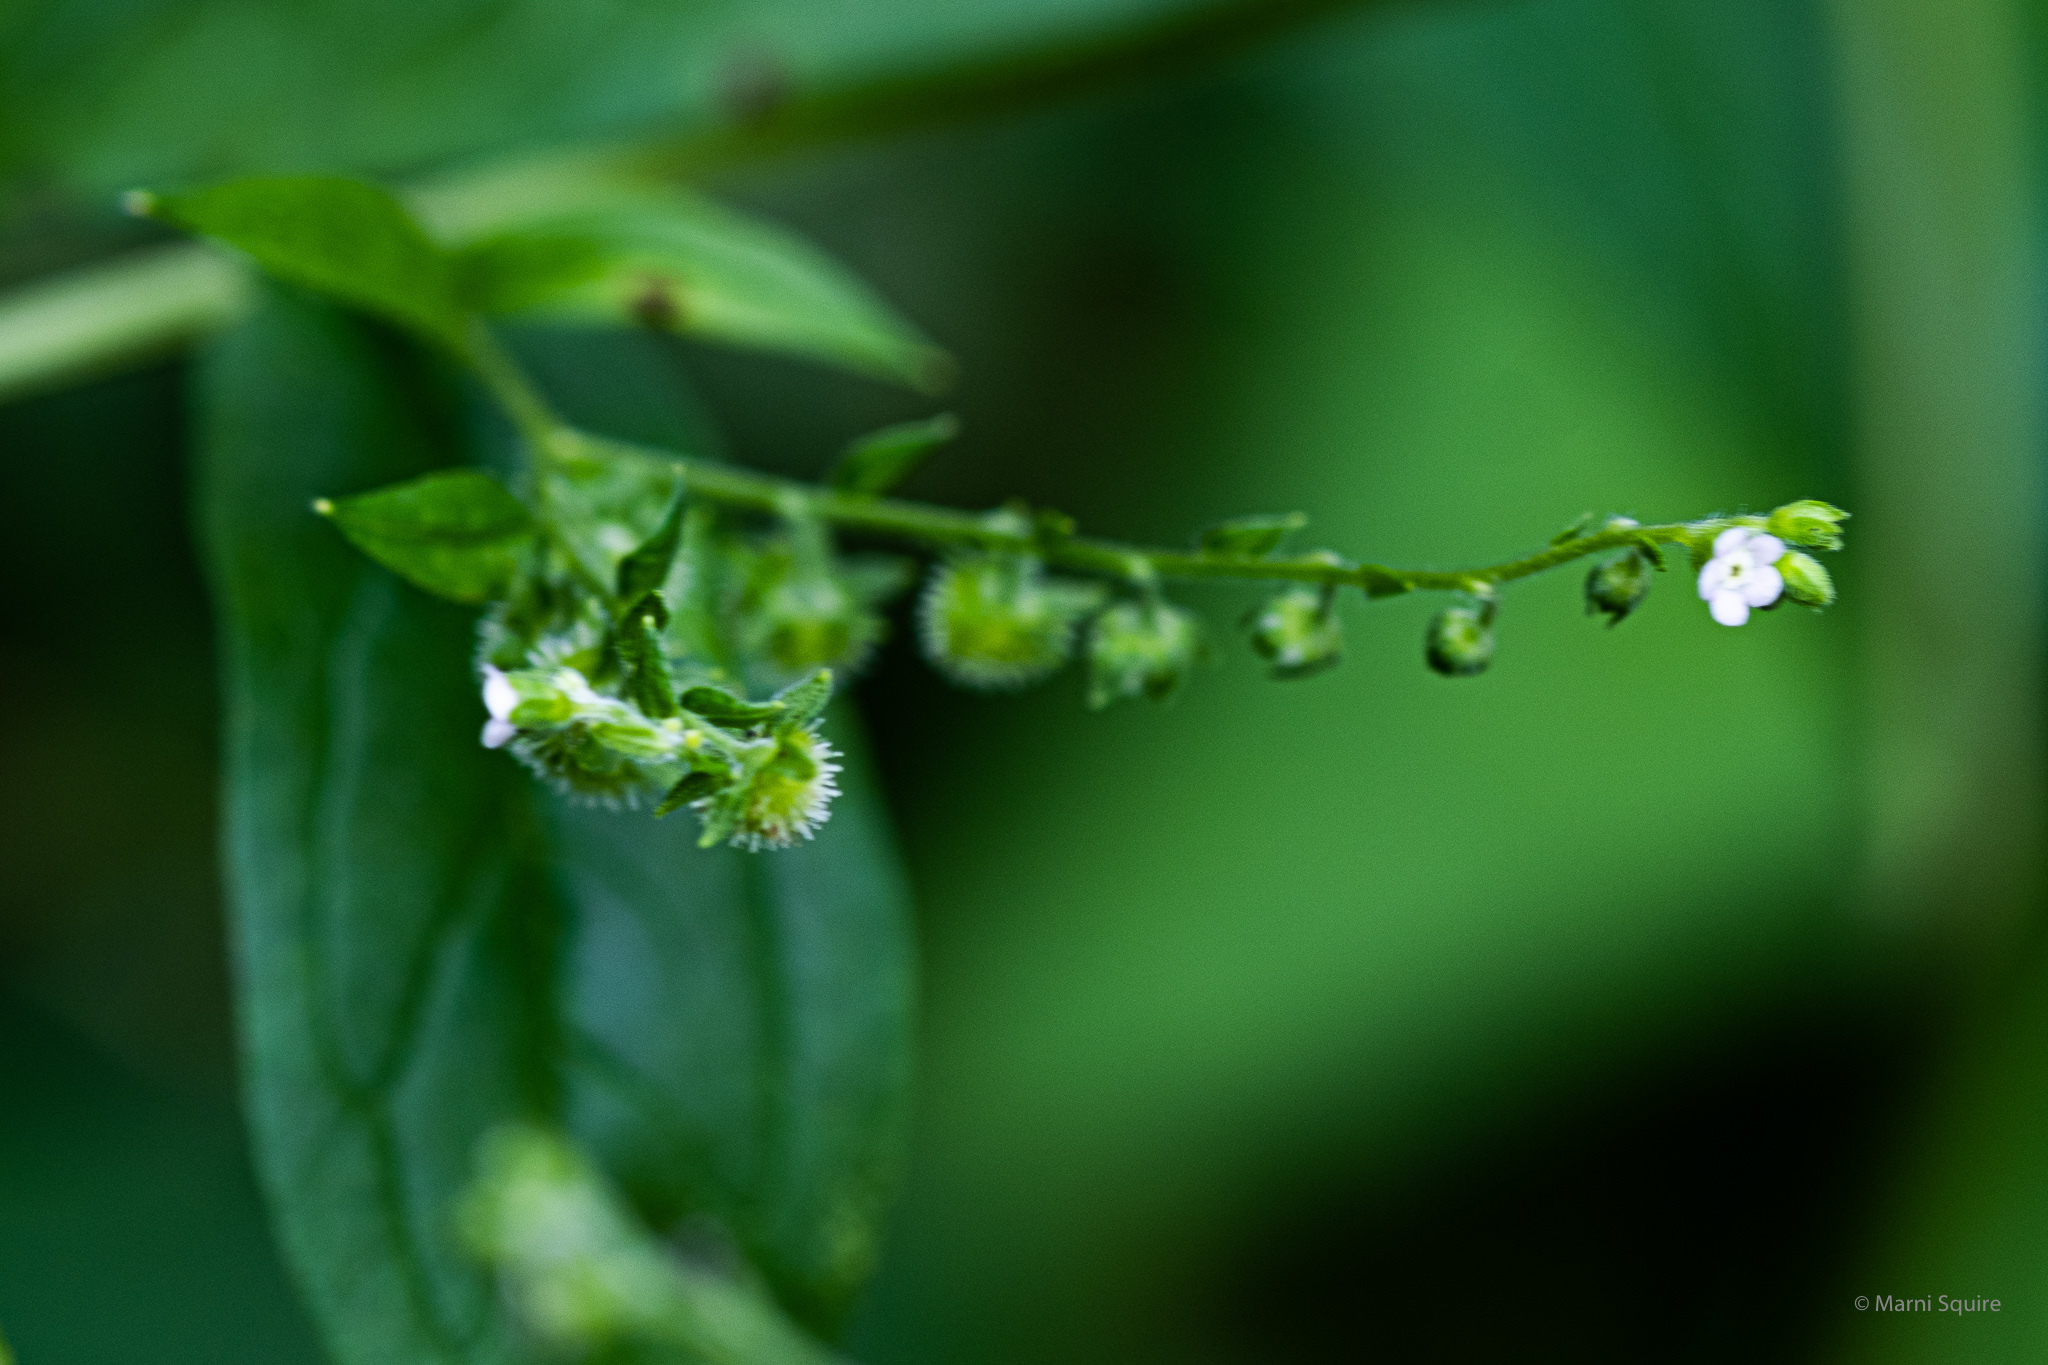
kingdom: Plantae
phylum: Tracheophyta
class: Magnoliopsida
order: Boraginales
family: Boraginaceae
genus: Hackelia
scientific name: Hackelia virginiana
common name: Beggar's-lice
